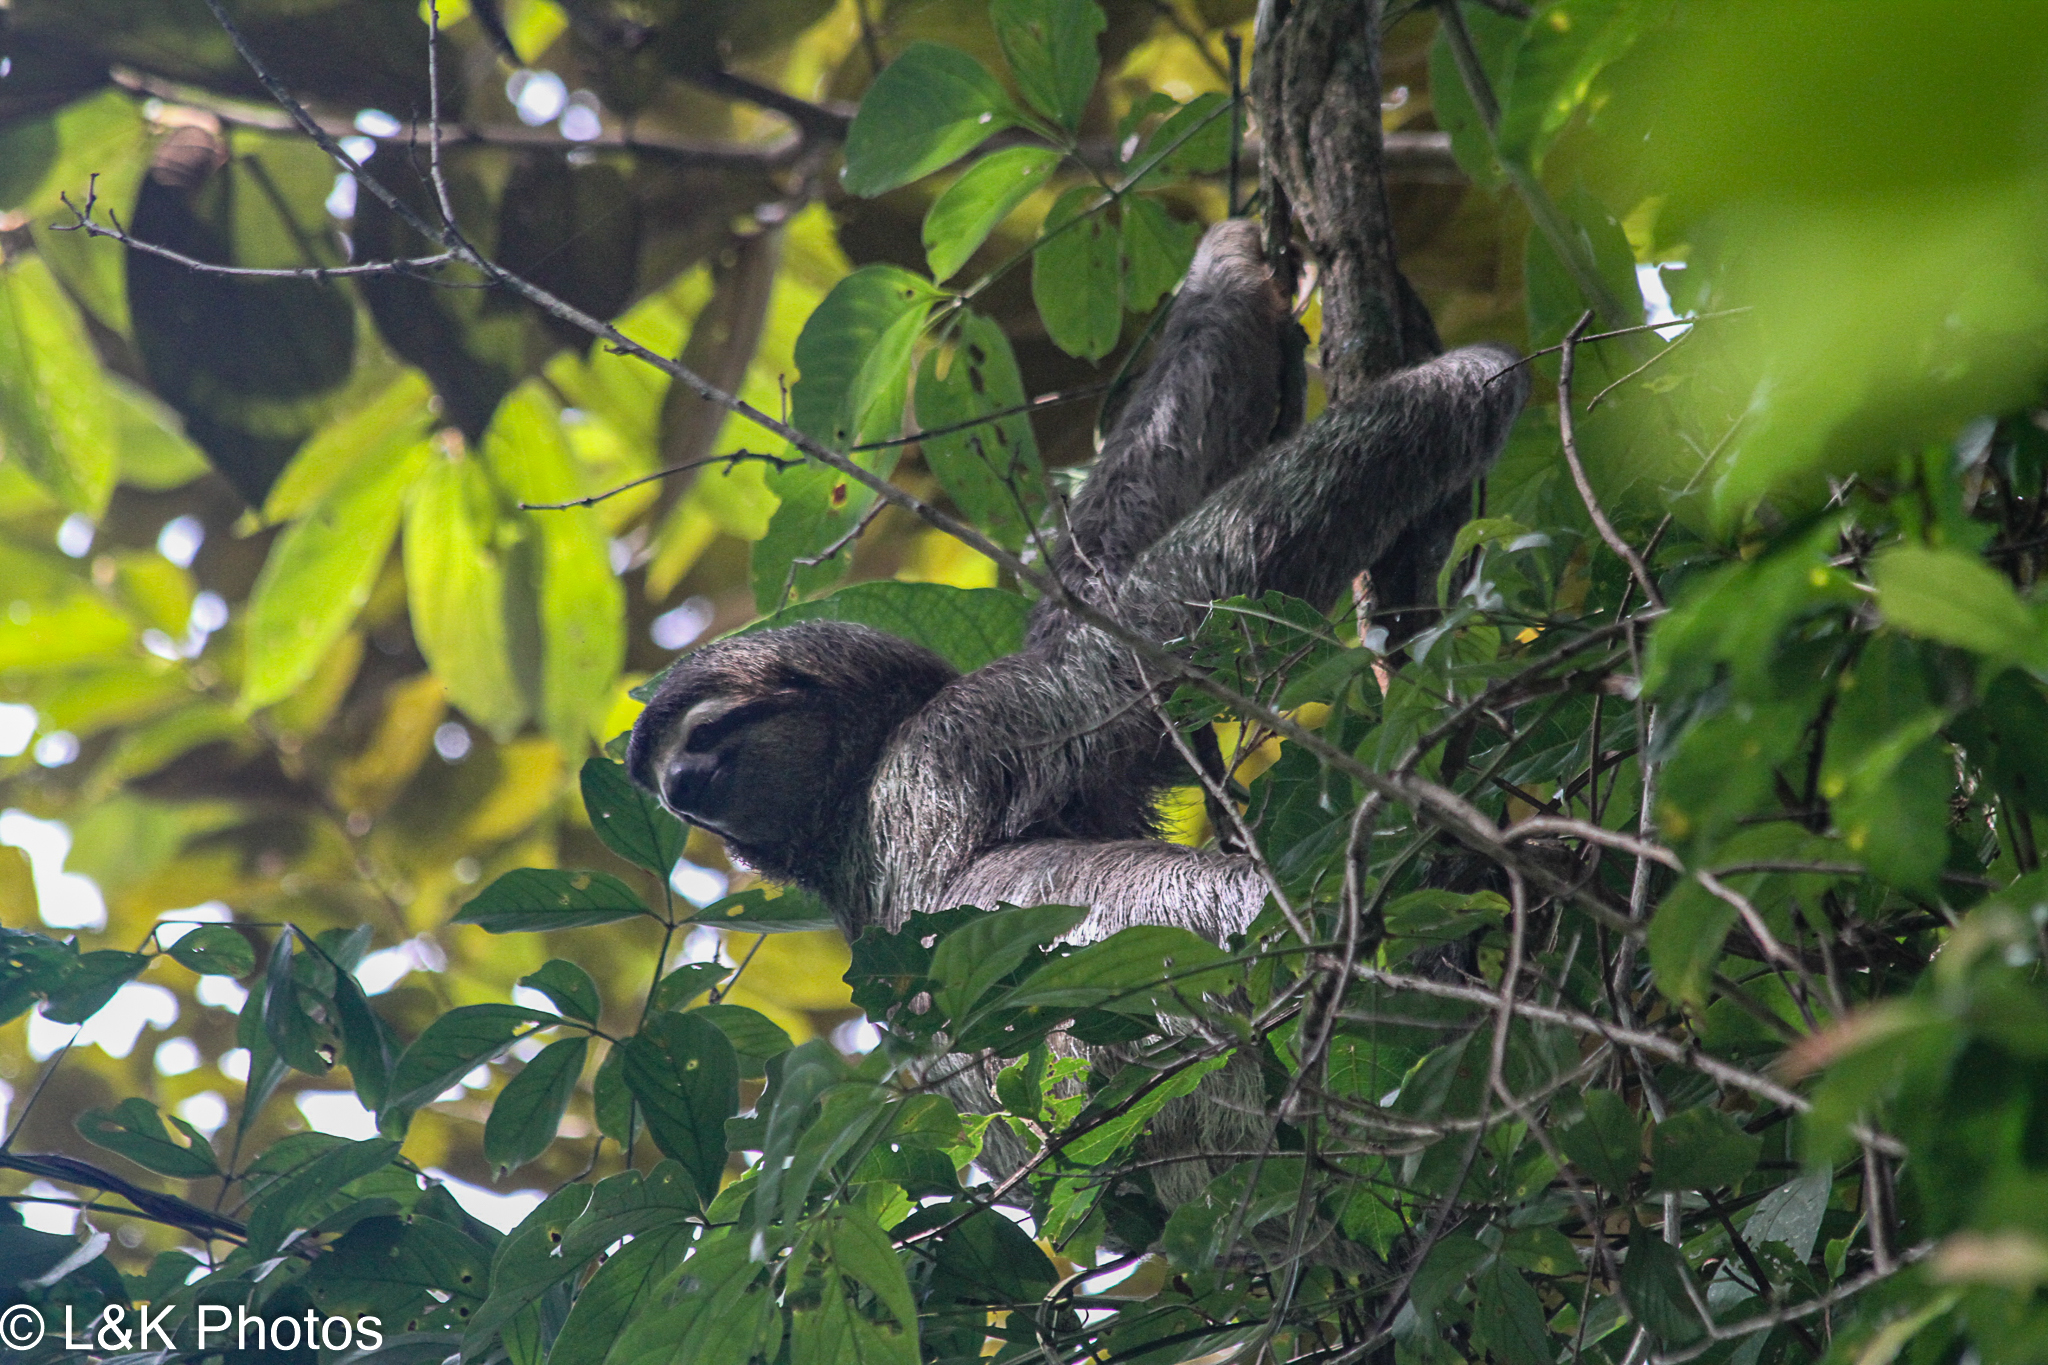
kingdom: Animalia
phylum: Chordata
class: Mammalia
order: Pilosa
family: Bradypodidae
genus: Bradypus
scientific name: Bradypus variegatus
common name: Brown-throated three-toed sloth
